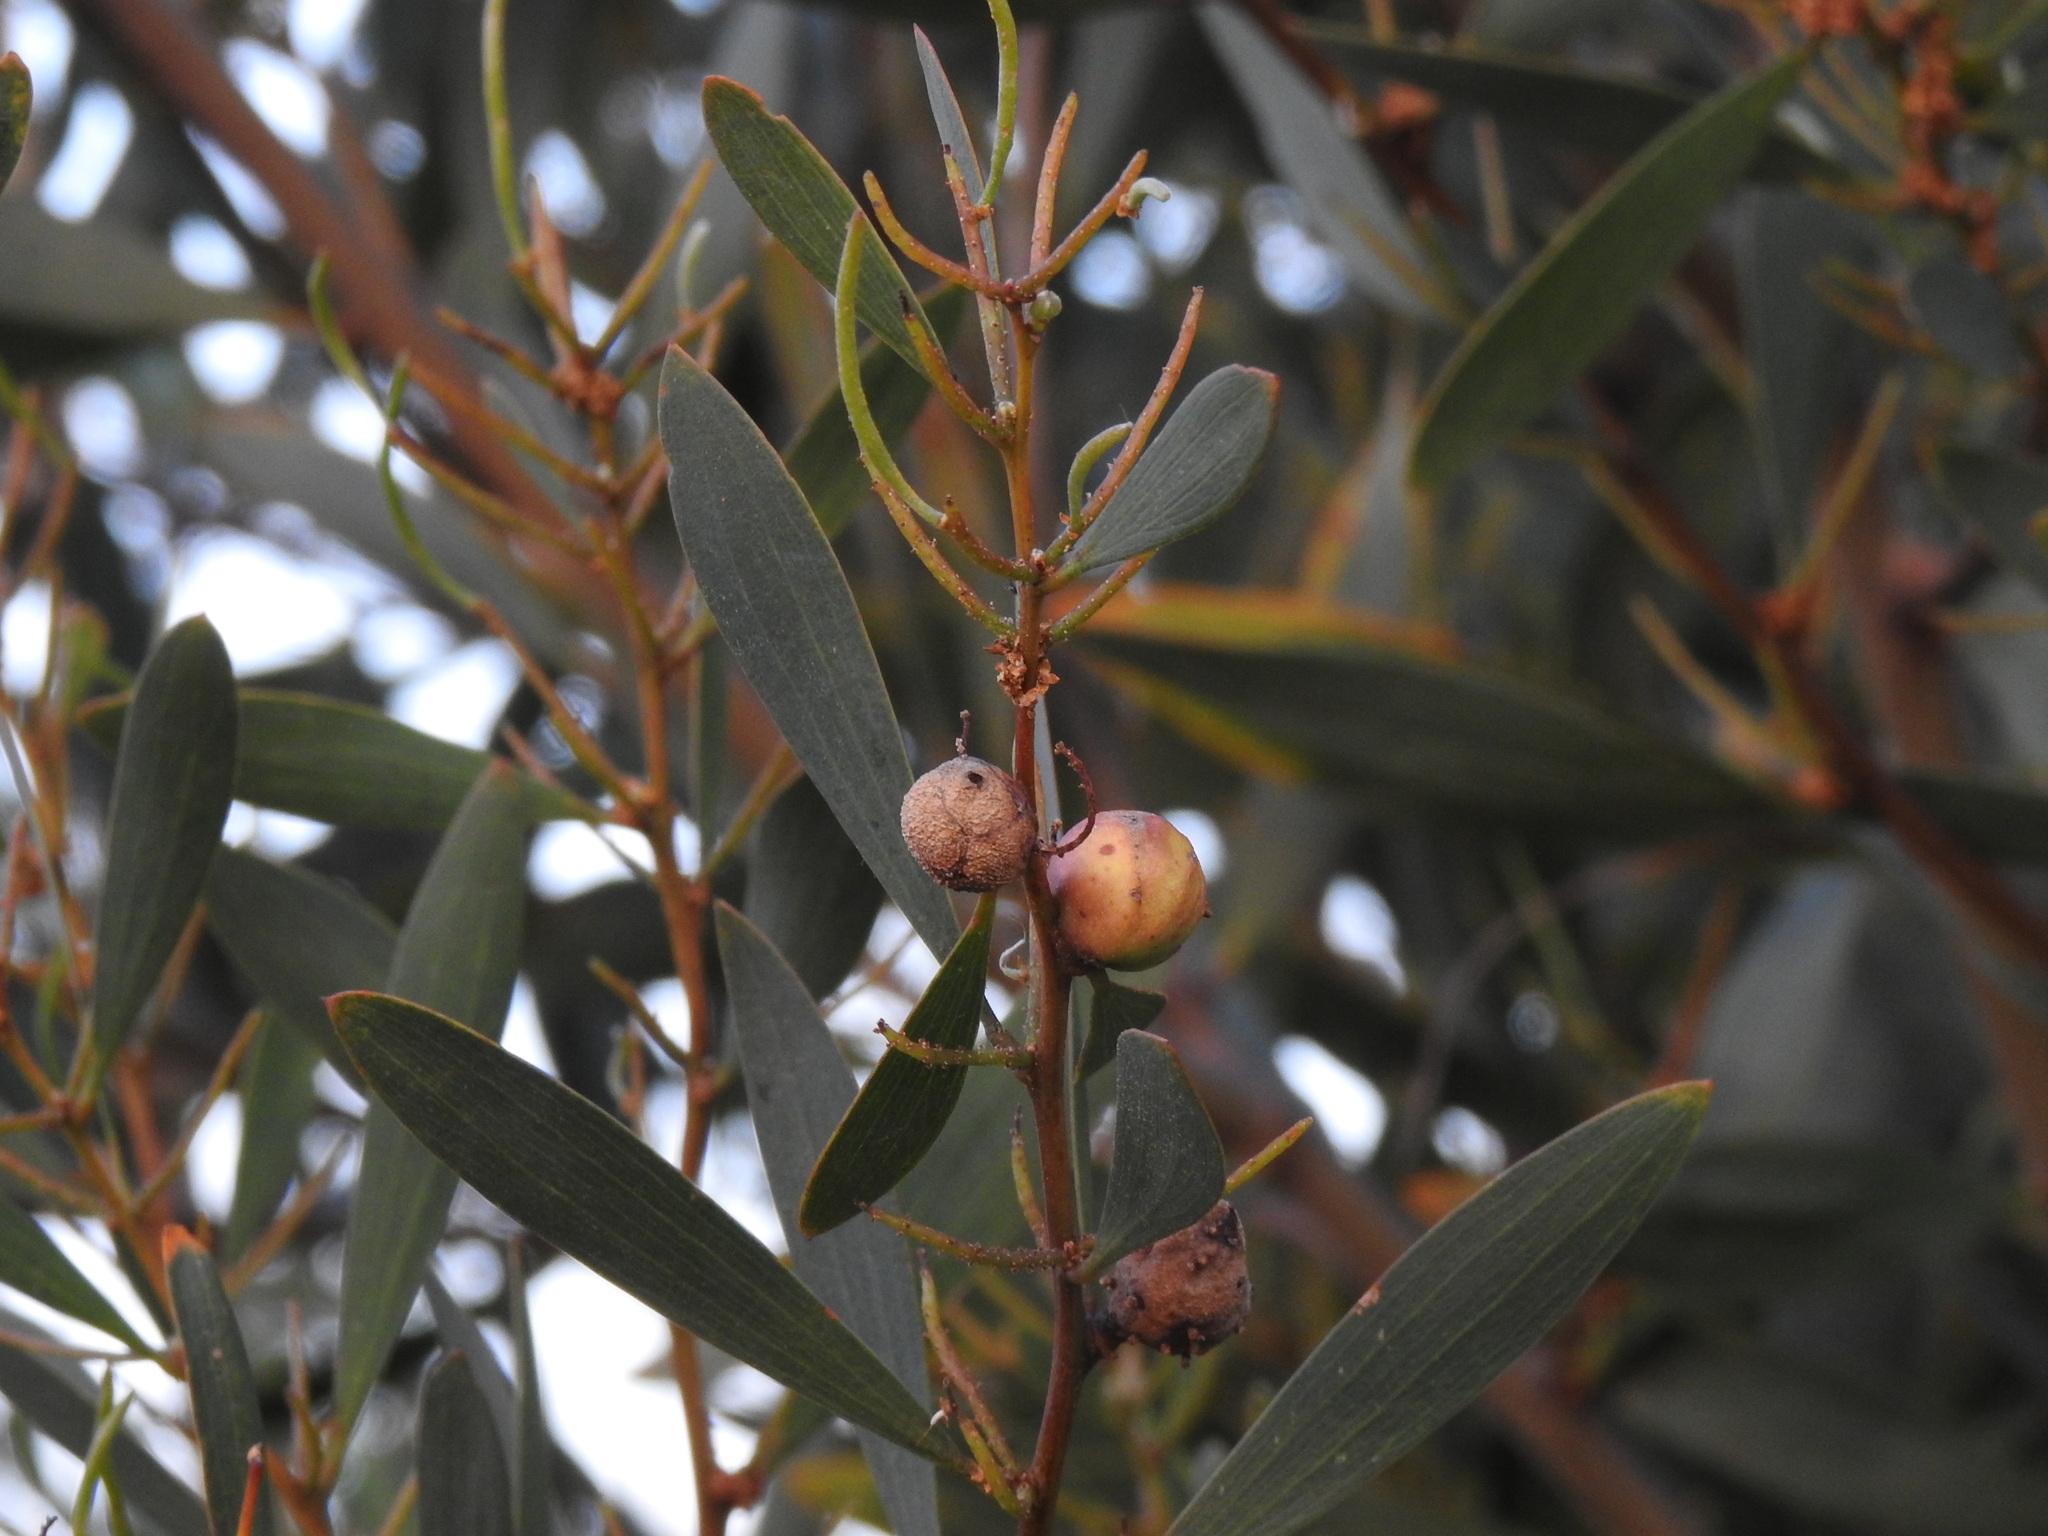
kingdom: Animalia
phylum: Arthropoda
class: Insecta
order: Hymenoptera
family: Pteromalidae
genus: Trichilogaster
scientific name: Trichilogaster acaciaelongifoliae
